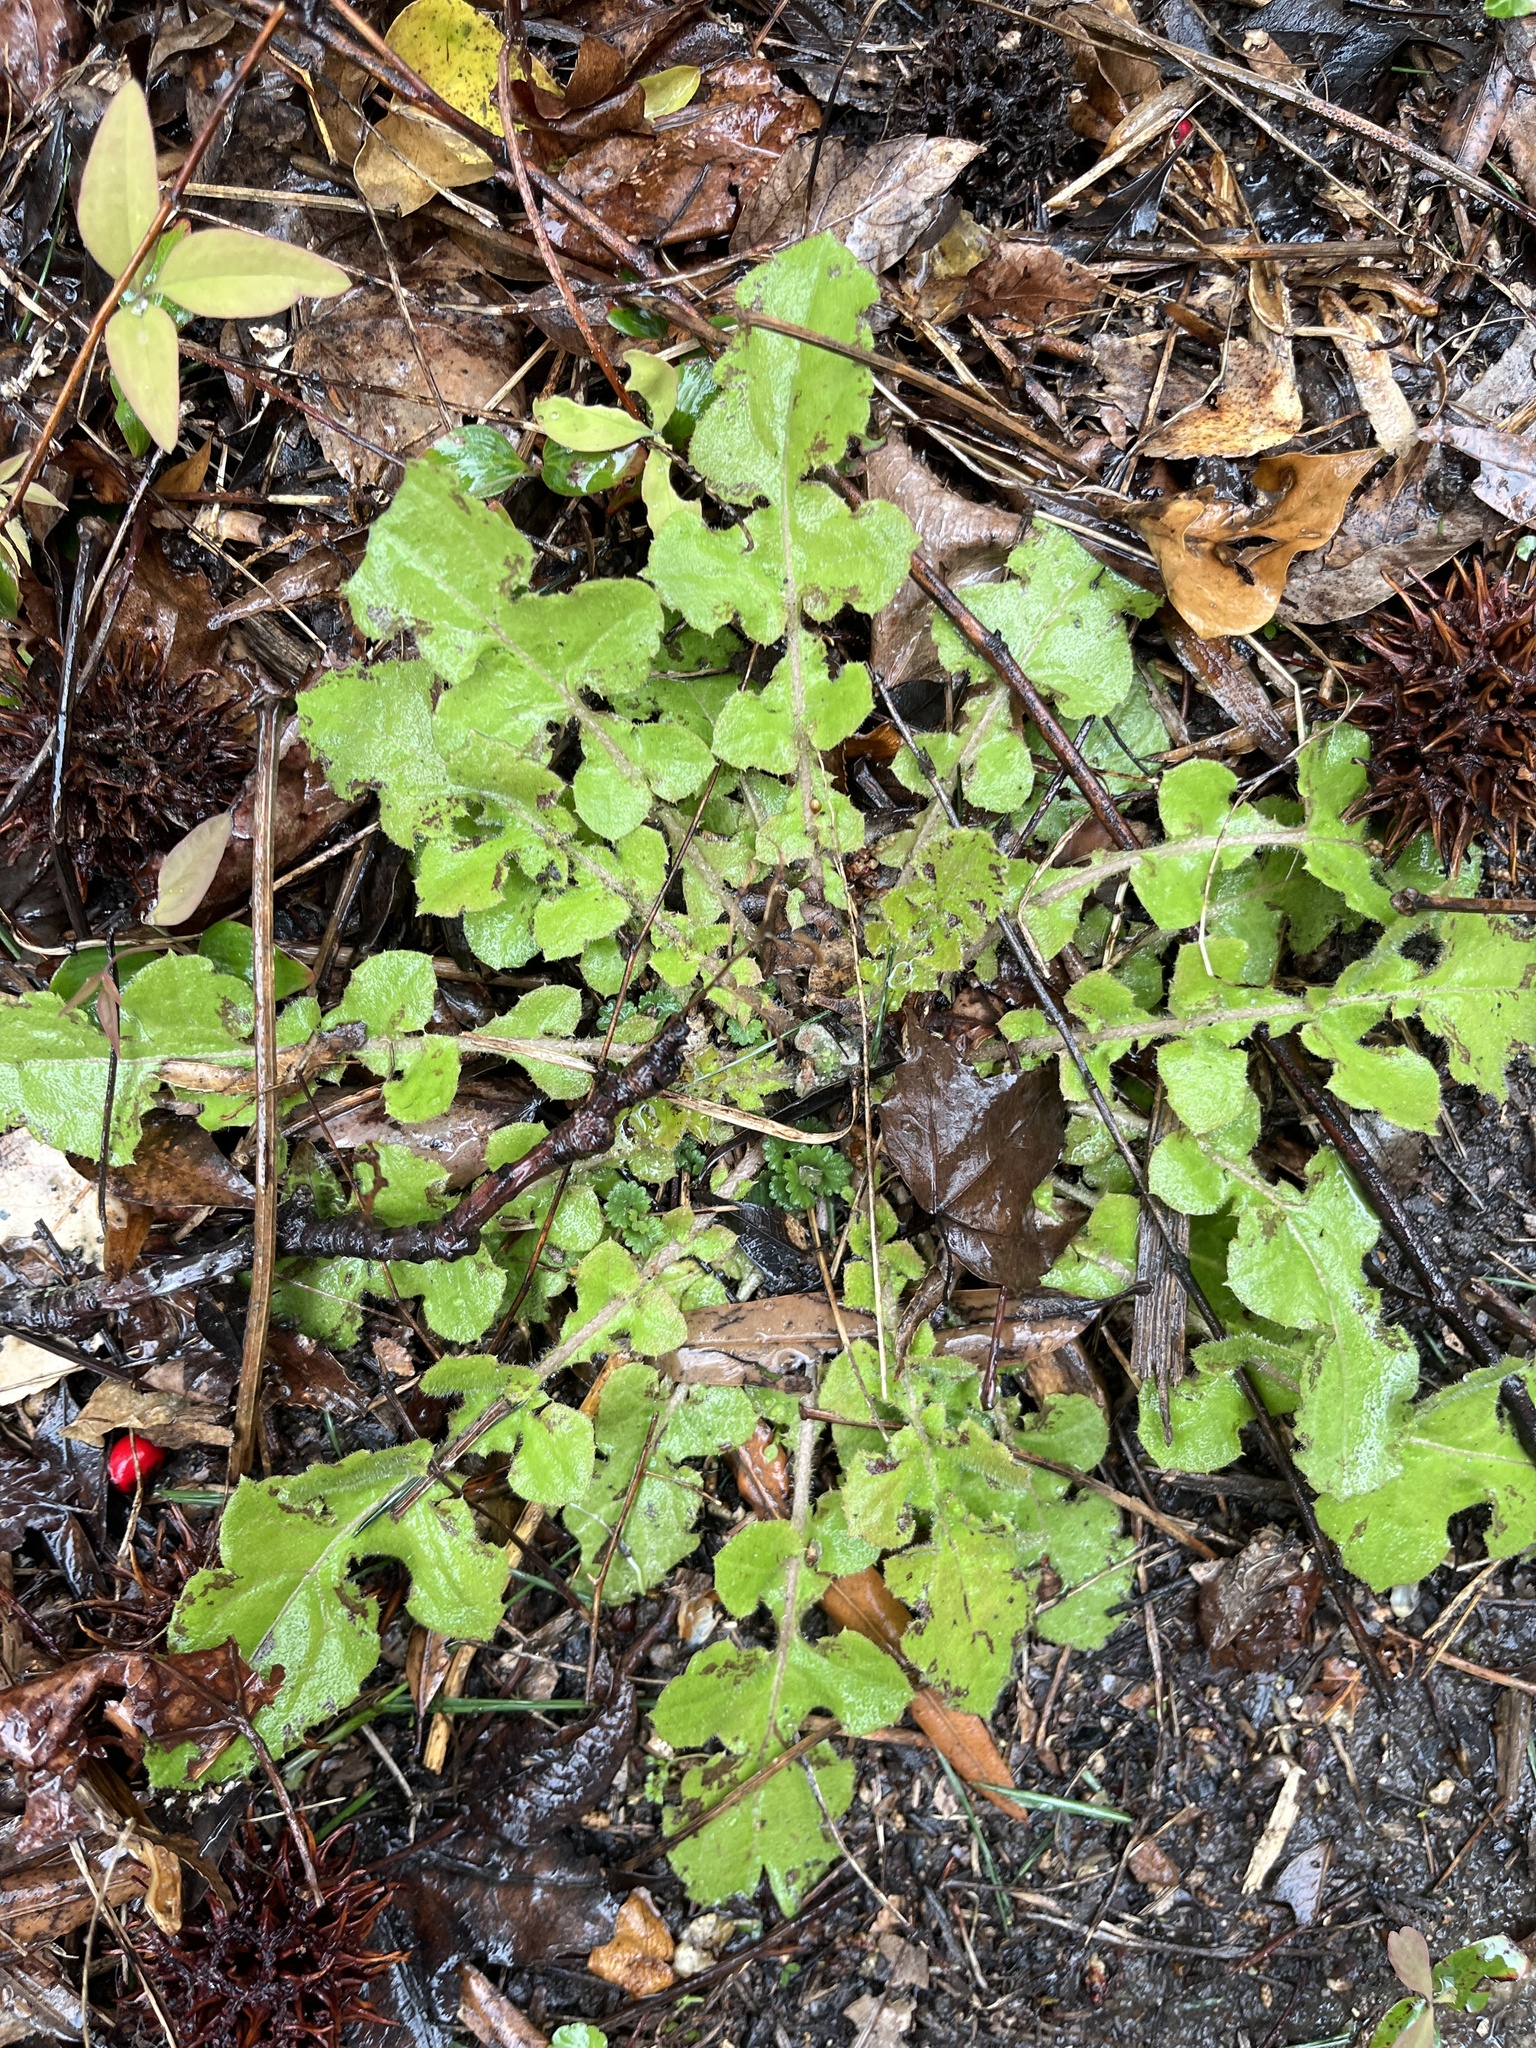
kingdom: Plantae
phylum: Tracheophyta
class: Magnoliopsida
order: Asterales
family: Asteraceae
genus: Youngia
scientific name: Youngia japonica
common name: Oriental false hawksbeard
